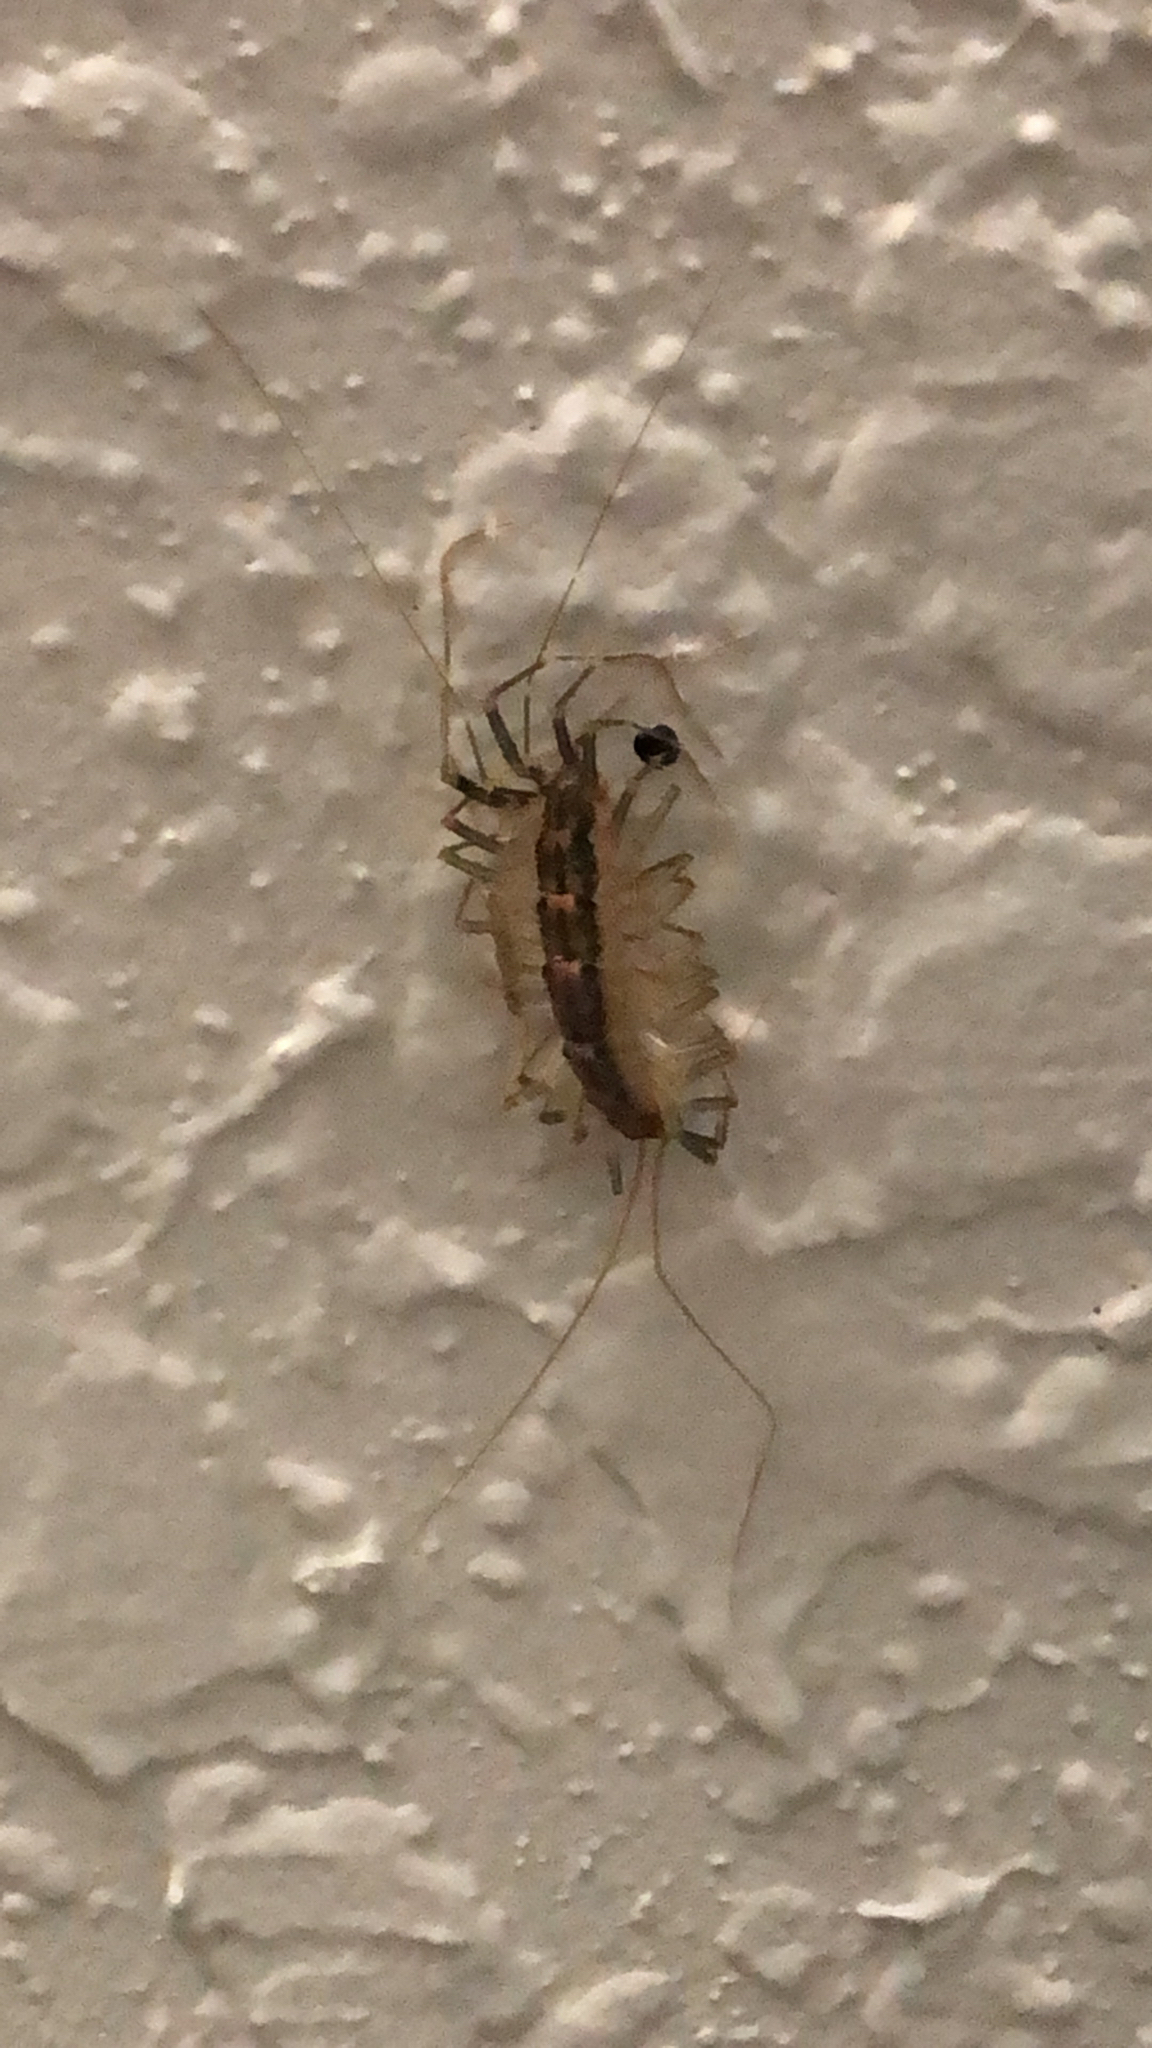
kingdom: Animalia
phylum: Arthropoda
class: Chilopoda
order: Scutigeromorpha
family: Scutigeridae
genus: Scutigera
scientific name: Scutigera coleoptrata
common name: House centipede
